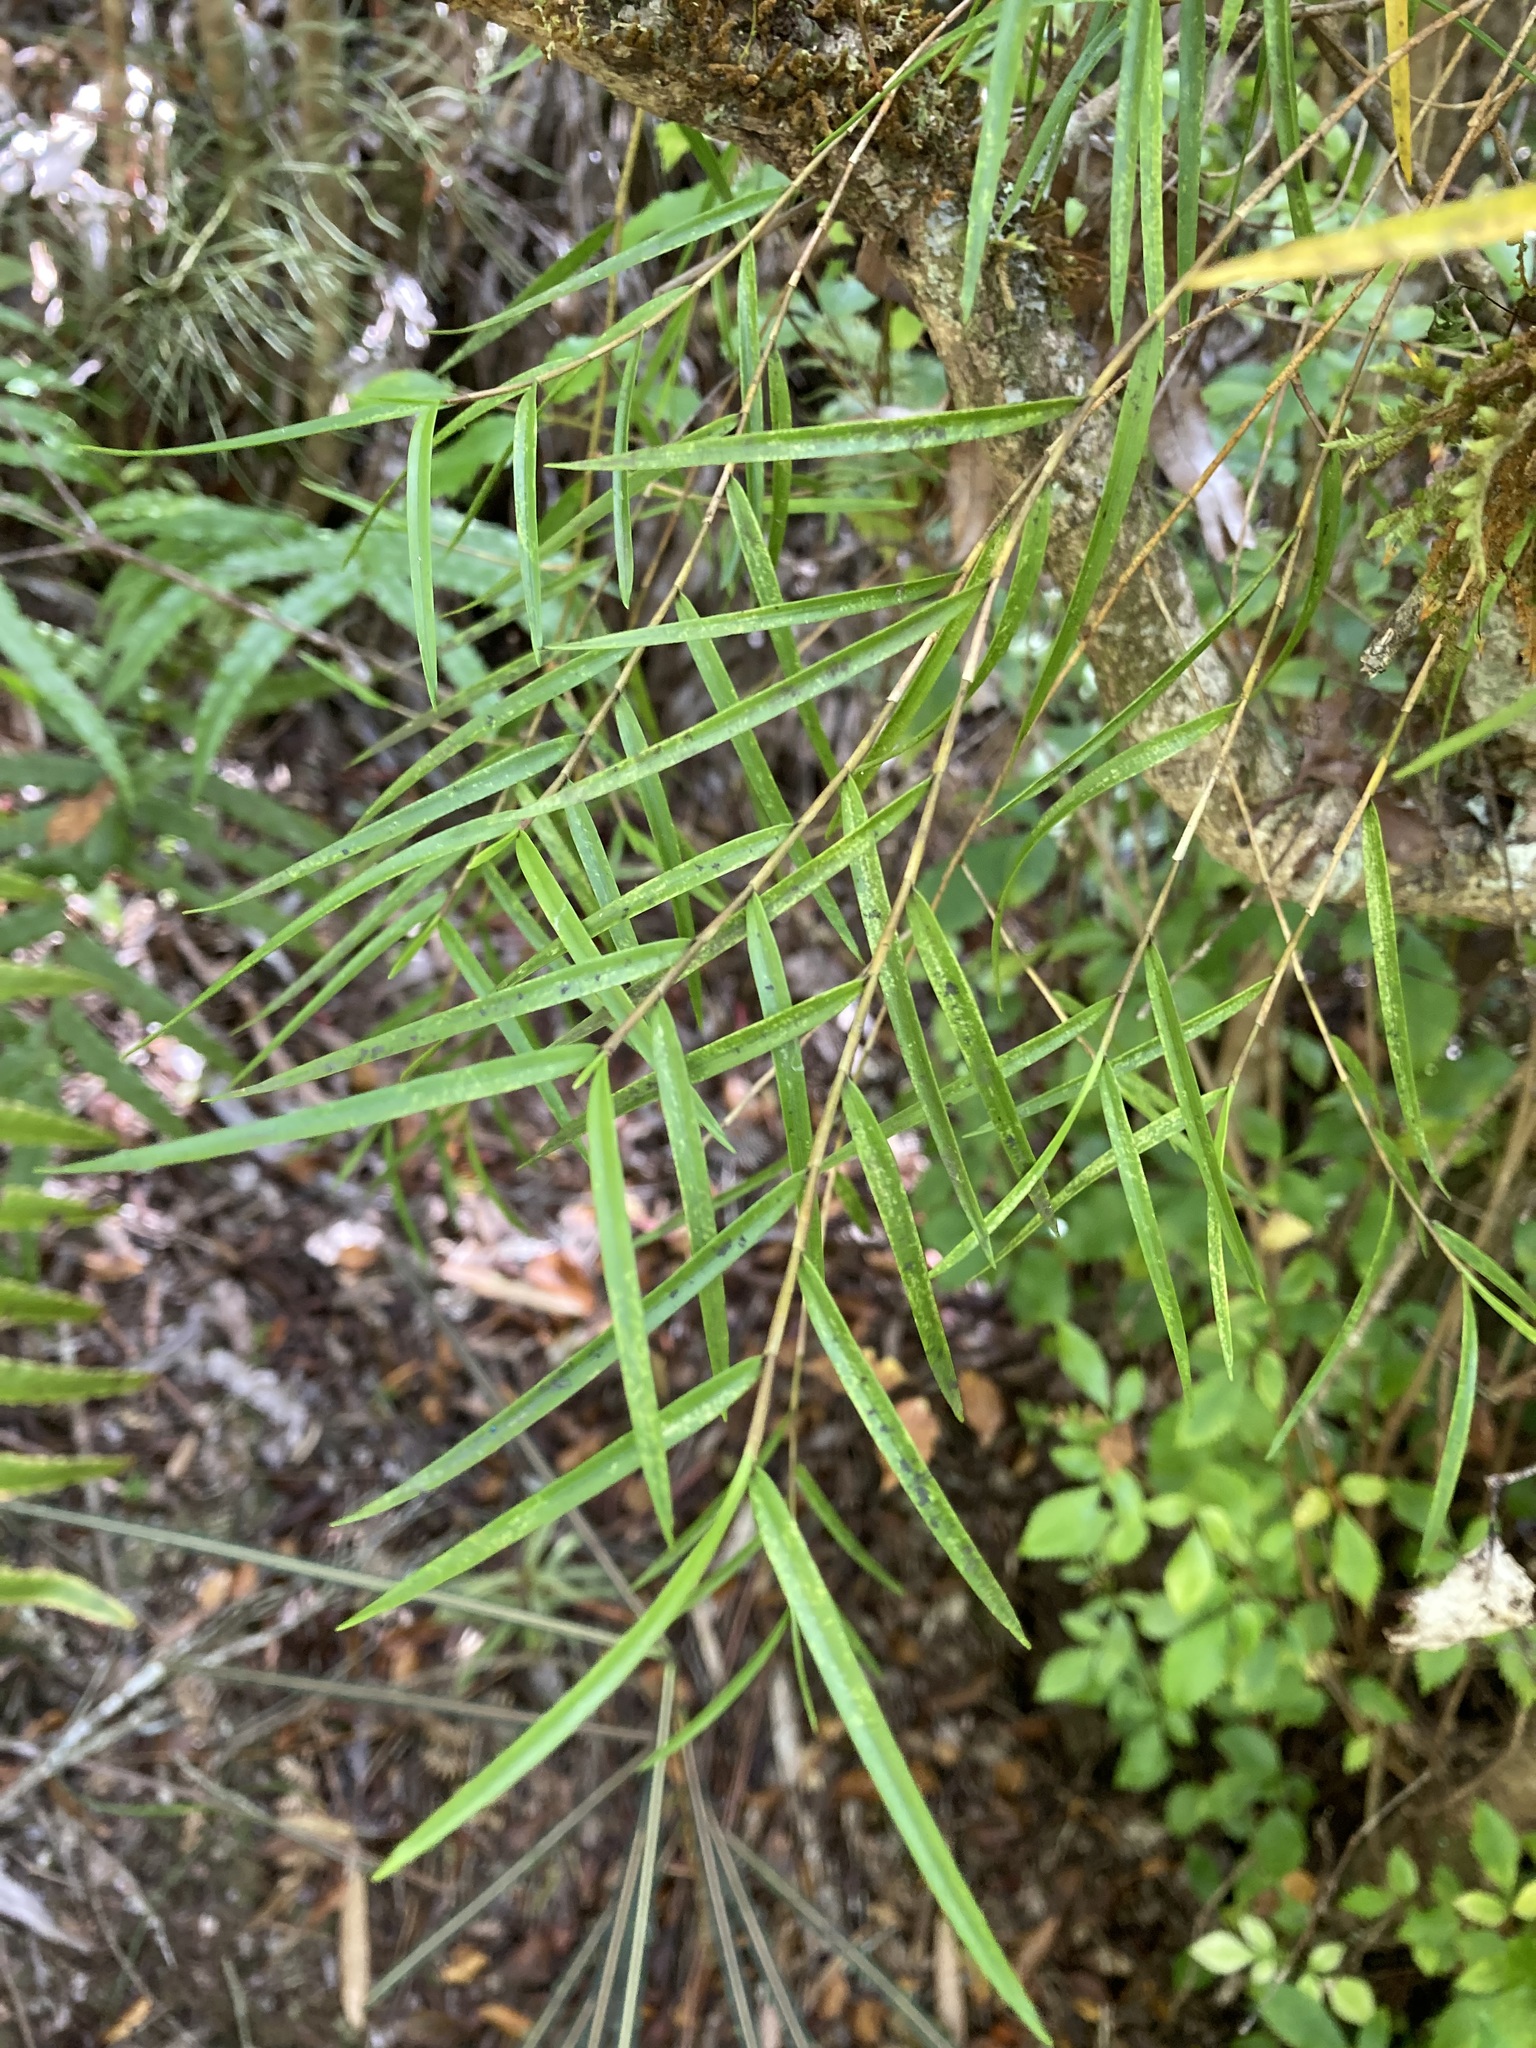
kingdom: Plantae
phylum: Tracheophyta
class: Liliopsida
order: Asparagales
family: Orchidaceae
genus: Dendrobium
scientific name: Dendrobium cunninghamii
